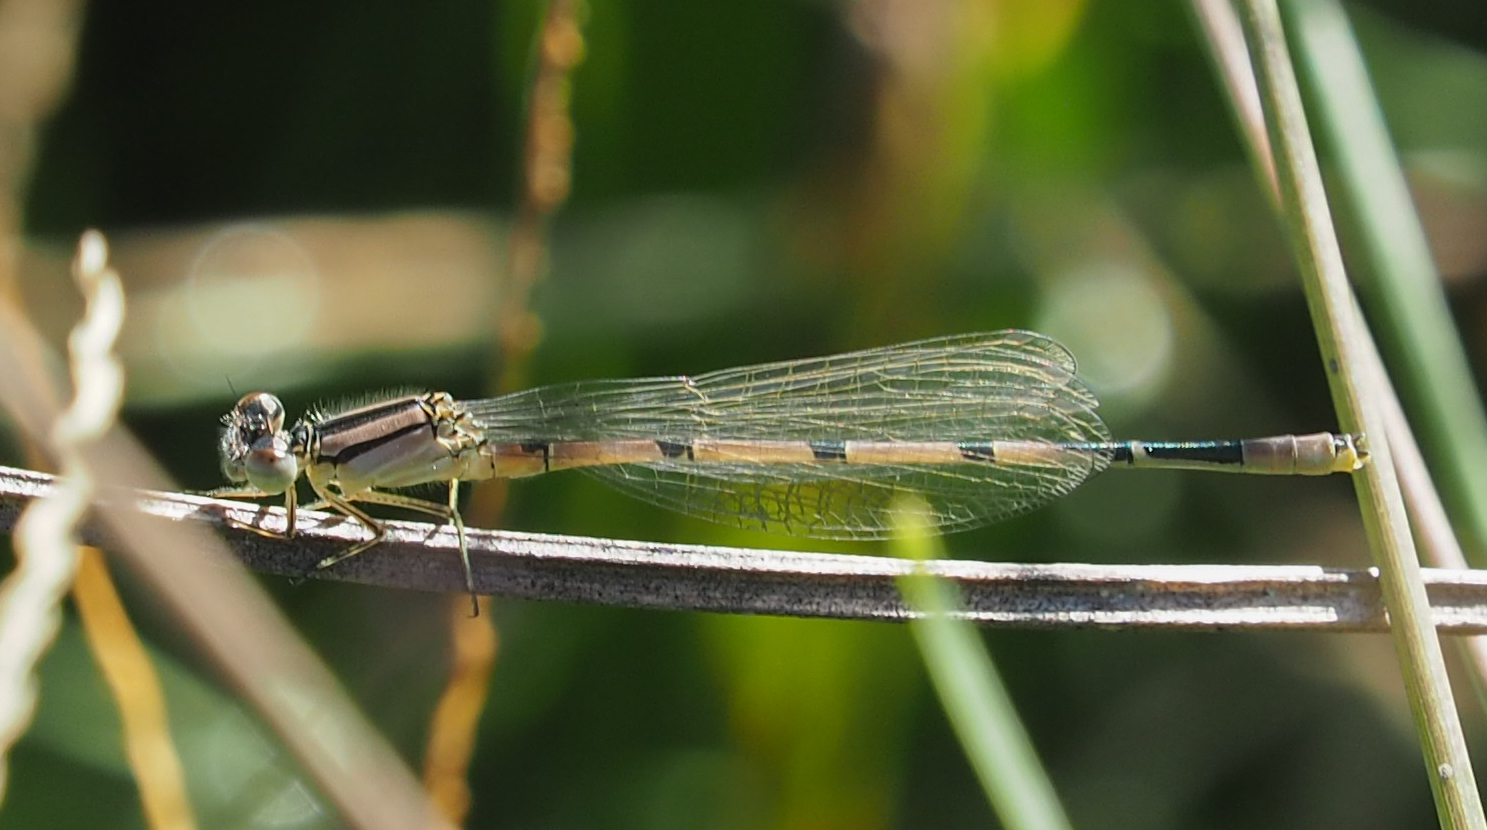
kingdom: Animalia
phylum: Arthropoda
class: Insecta
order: Odonata
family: Coenagrionidae
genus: Enallagma
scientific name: Enallagma civile
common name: Damselfly
